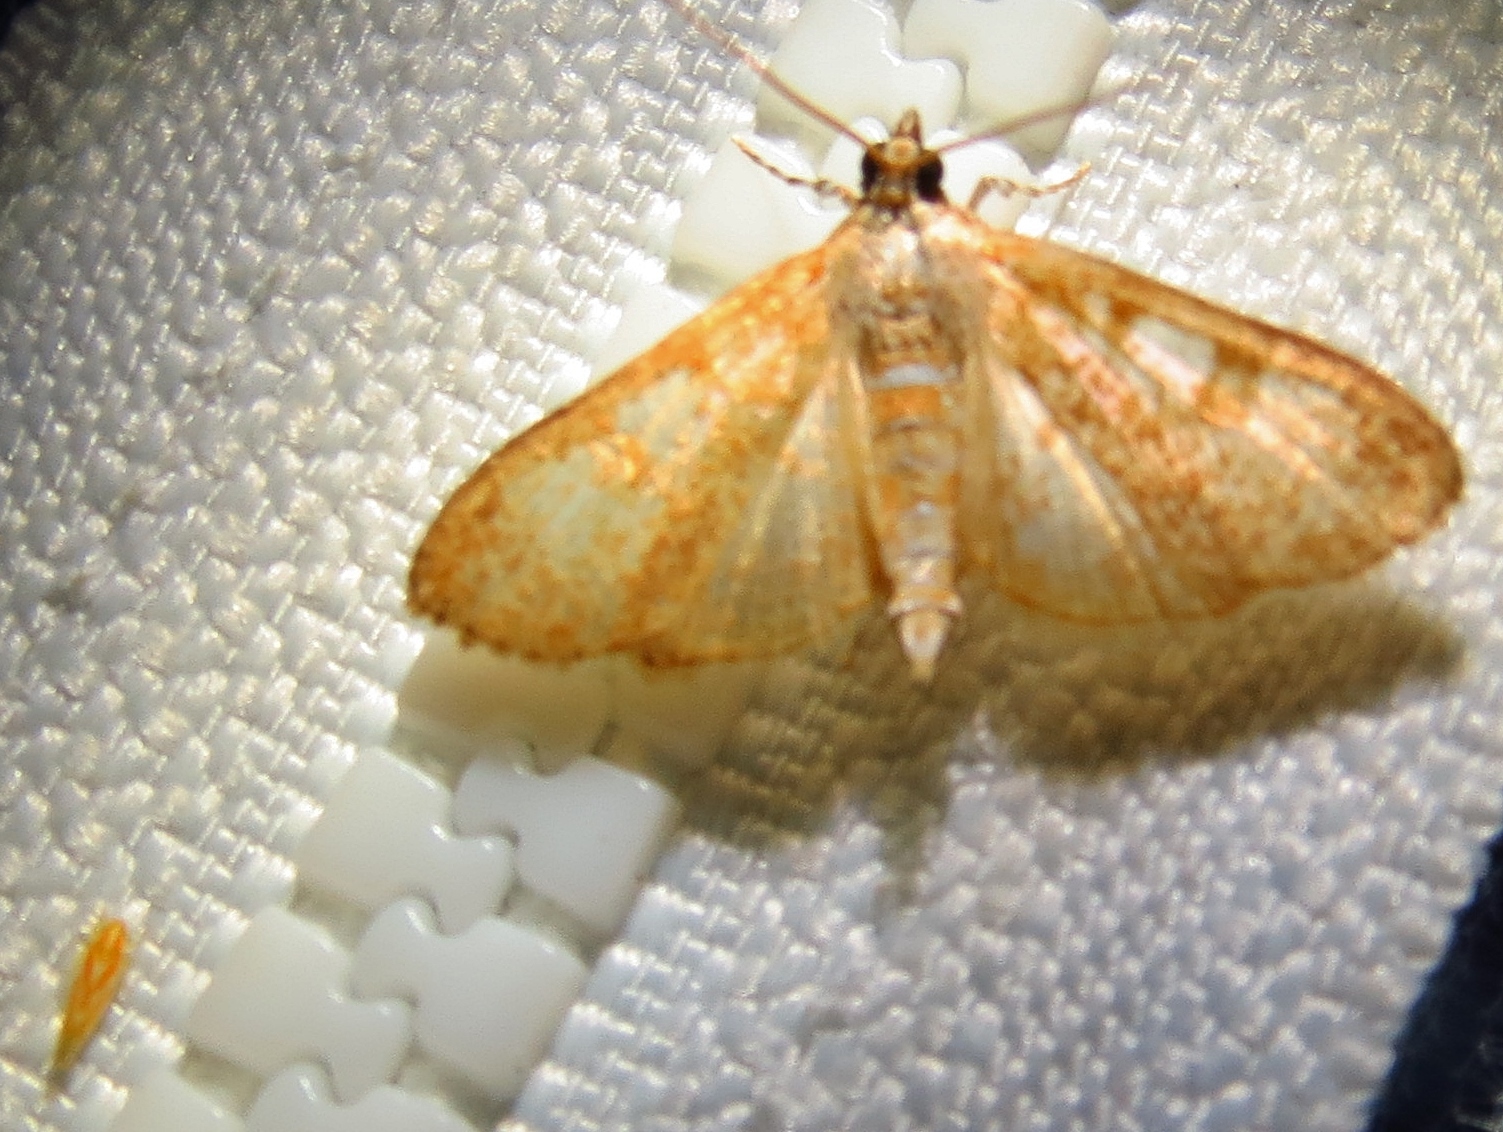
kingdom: Animalia
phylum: Arthropoda
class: Insecta
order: Lepidoptera
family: Crambidae
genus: Palpita
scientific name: Palpita freemanalis
